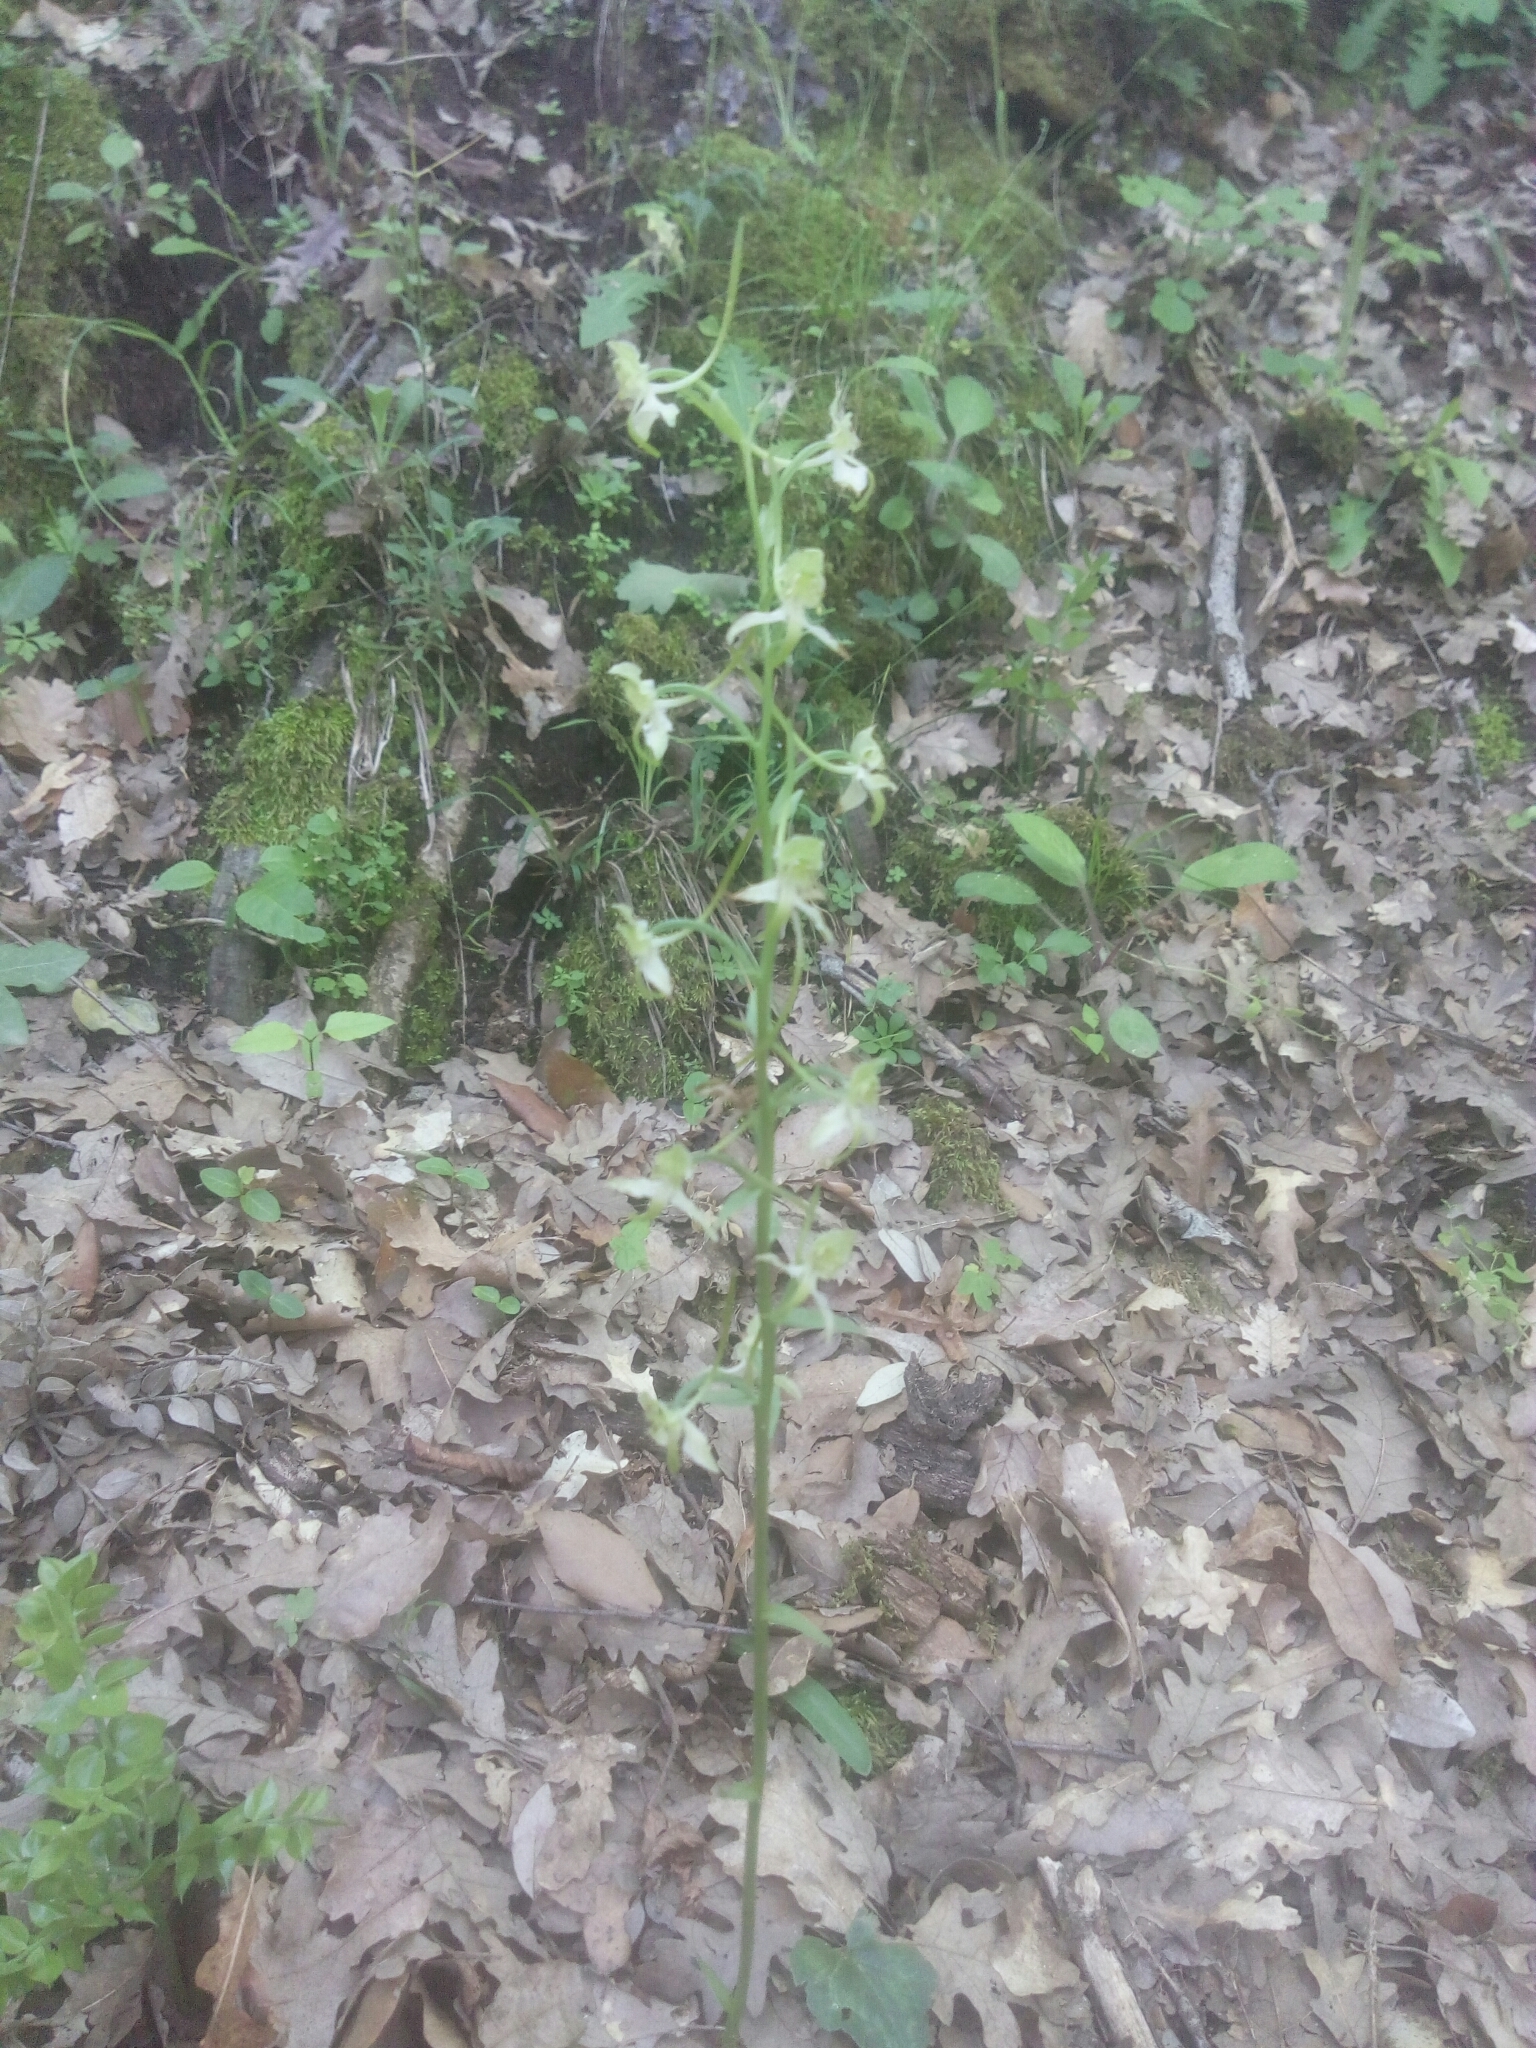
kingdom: Plantae
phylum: Tracheophyta
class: Liliopsida
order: Asparagales
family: Orchidaceae
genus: Platanthera
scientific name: Platanthera chlorantha
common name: Greater butterfly-orchid
